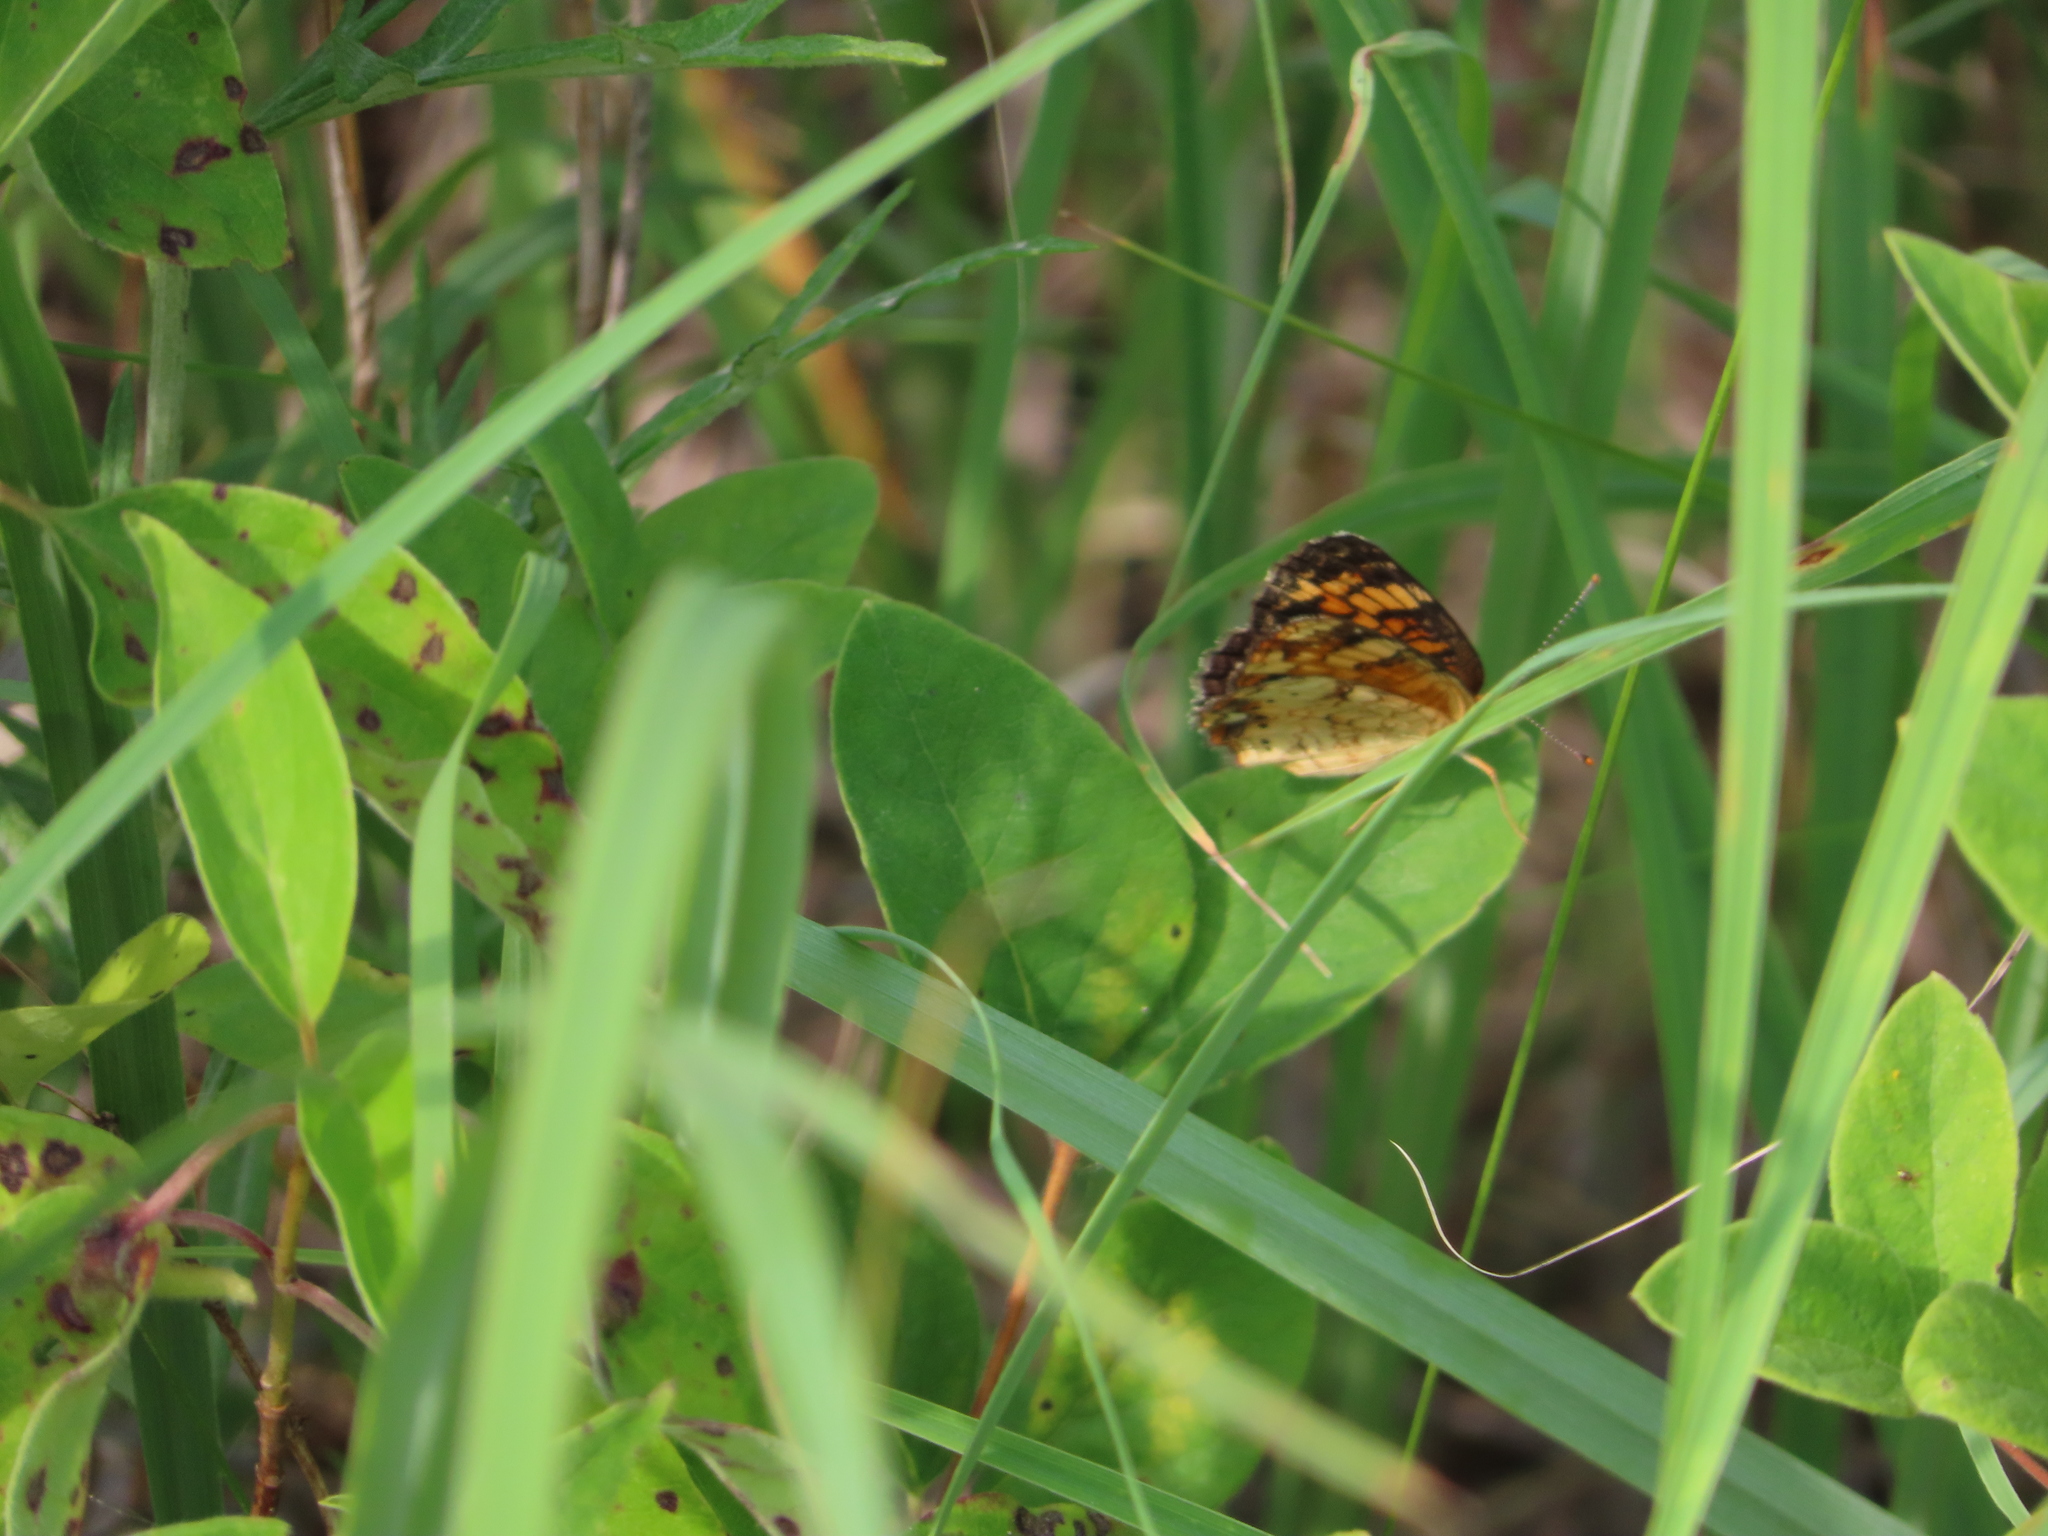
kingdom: Animalia
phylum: Arthropoda
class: Insecta
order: Lepidoptera
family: Nymphalidae
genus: Phyciodes
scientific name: Phyciodes tharos
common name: Pearl crescent
